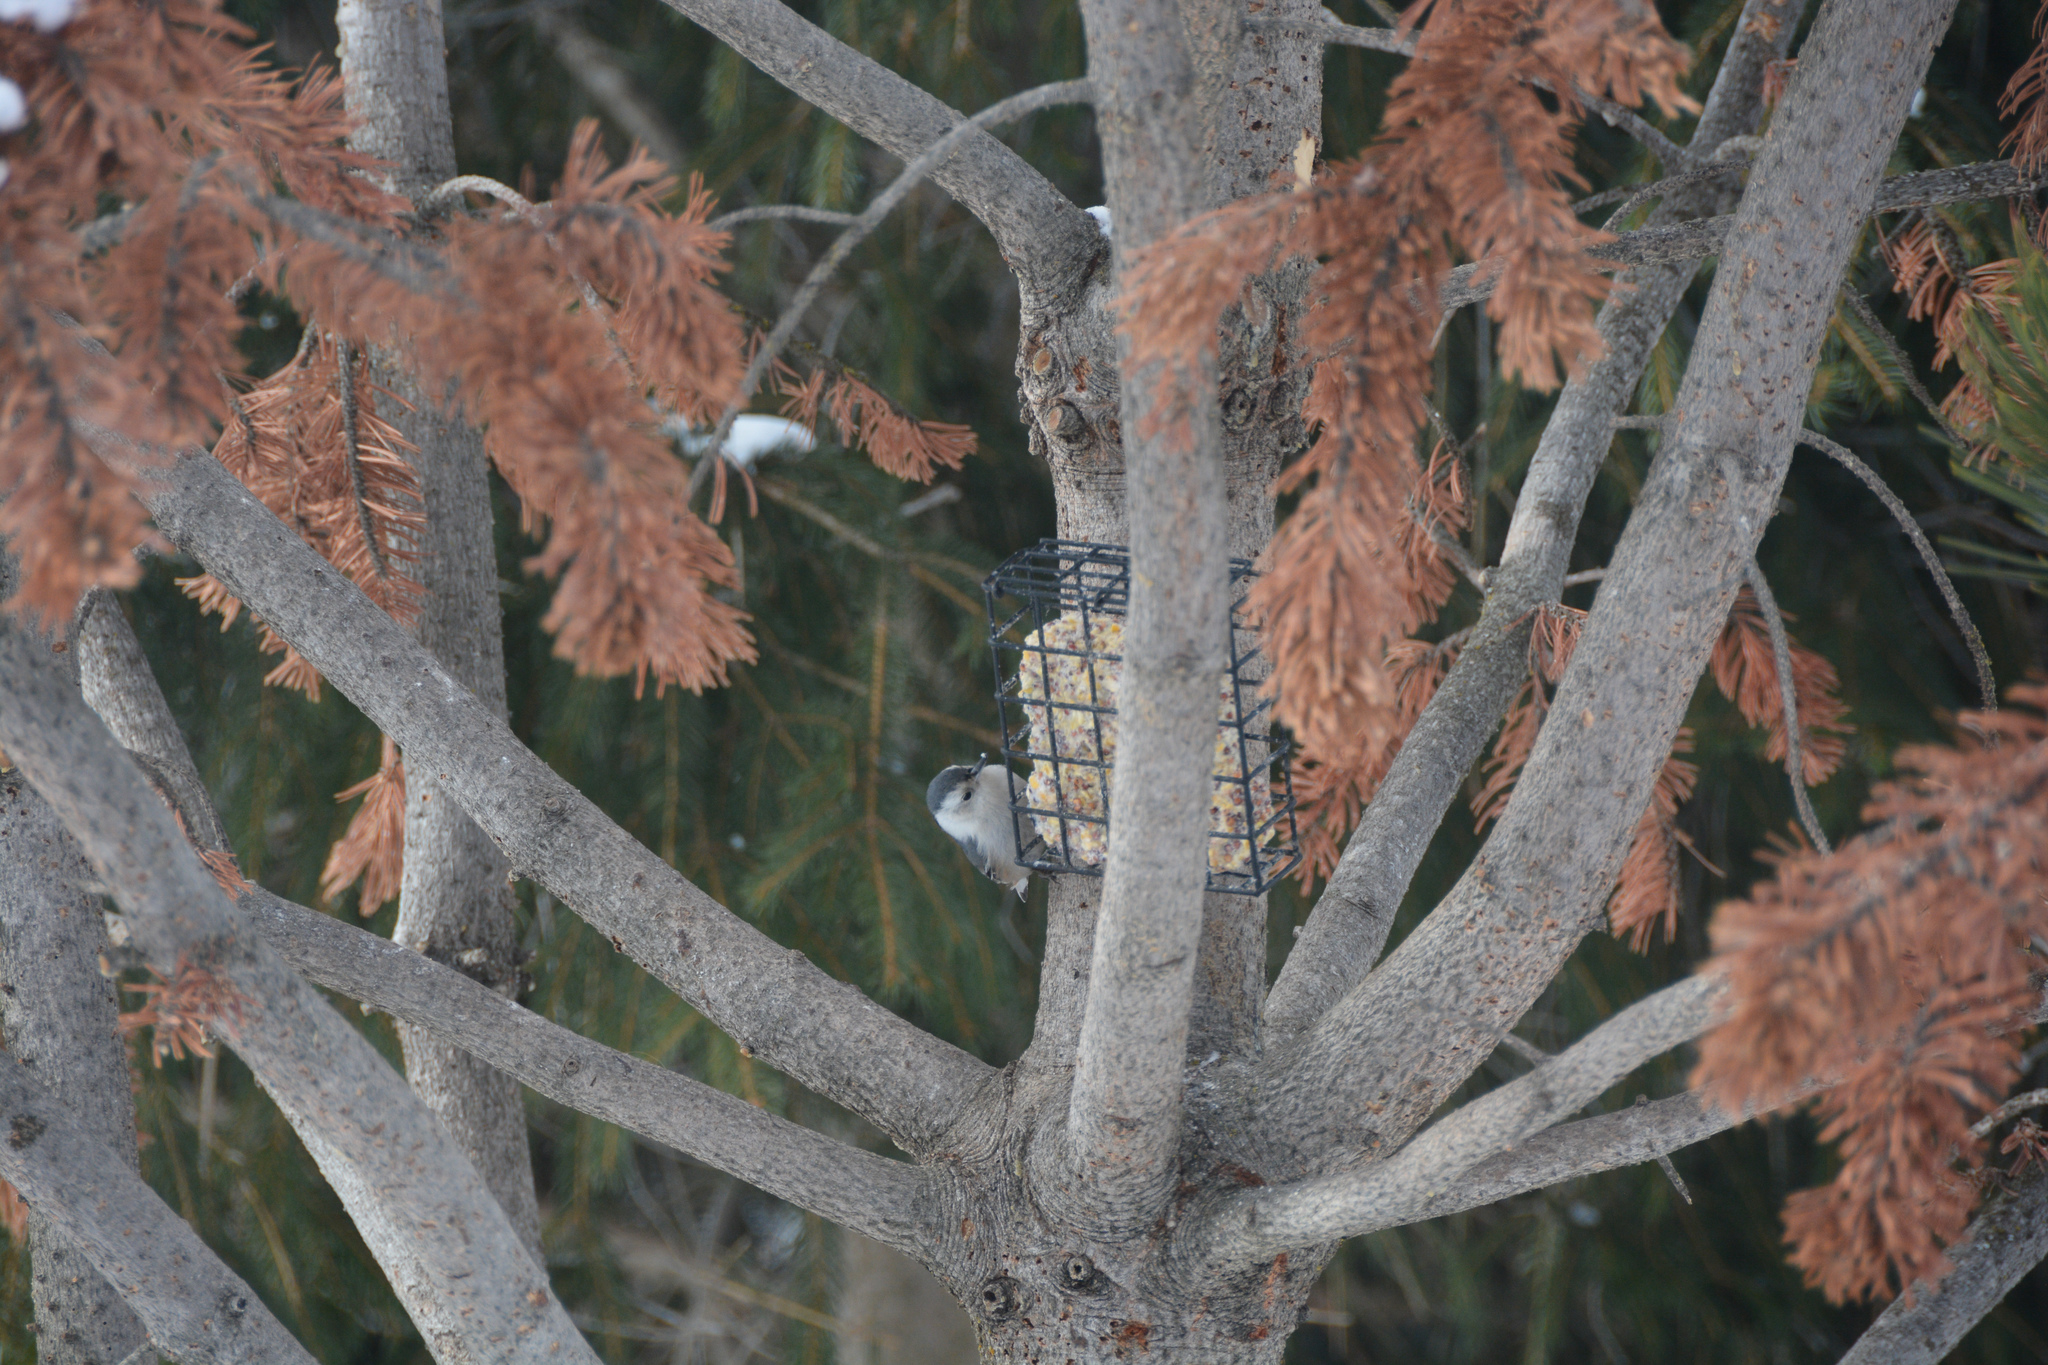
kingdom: Animalia
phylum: Chordata
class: Aves
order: Passeriformes
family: Sittidae
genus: Sitta
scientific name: Sitta carolinensis
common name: White-breasted nuthatch
